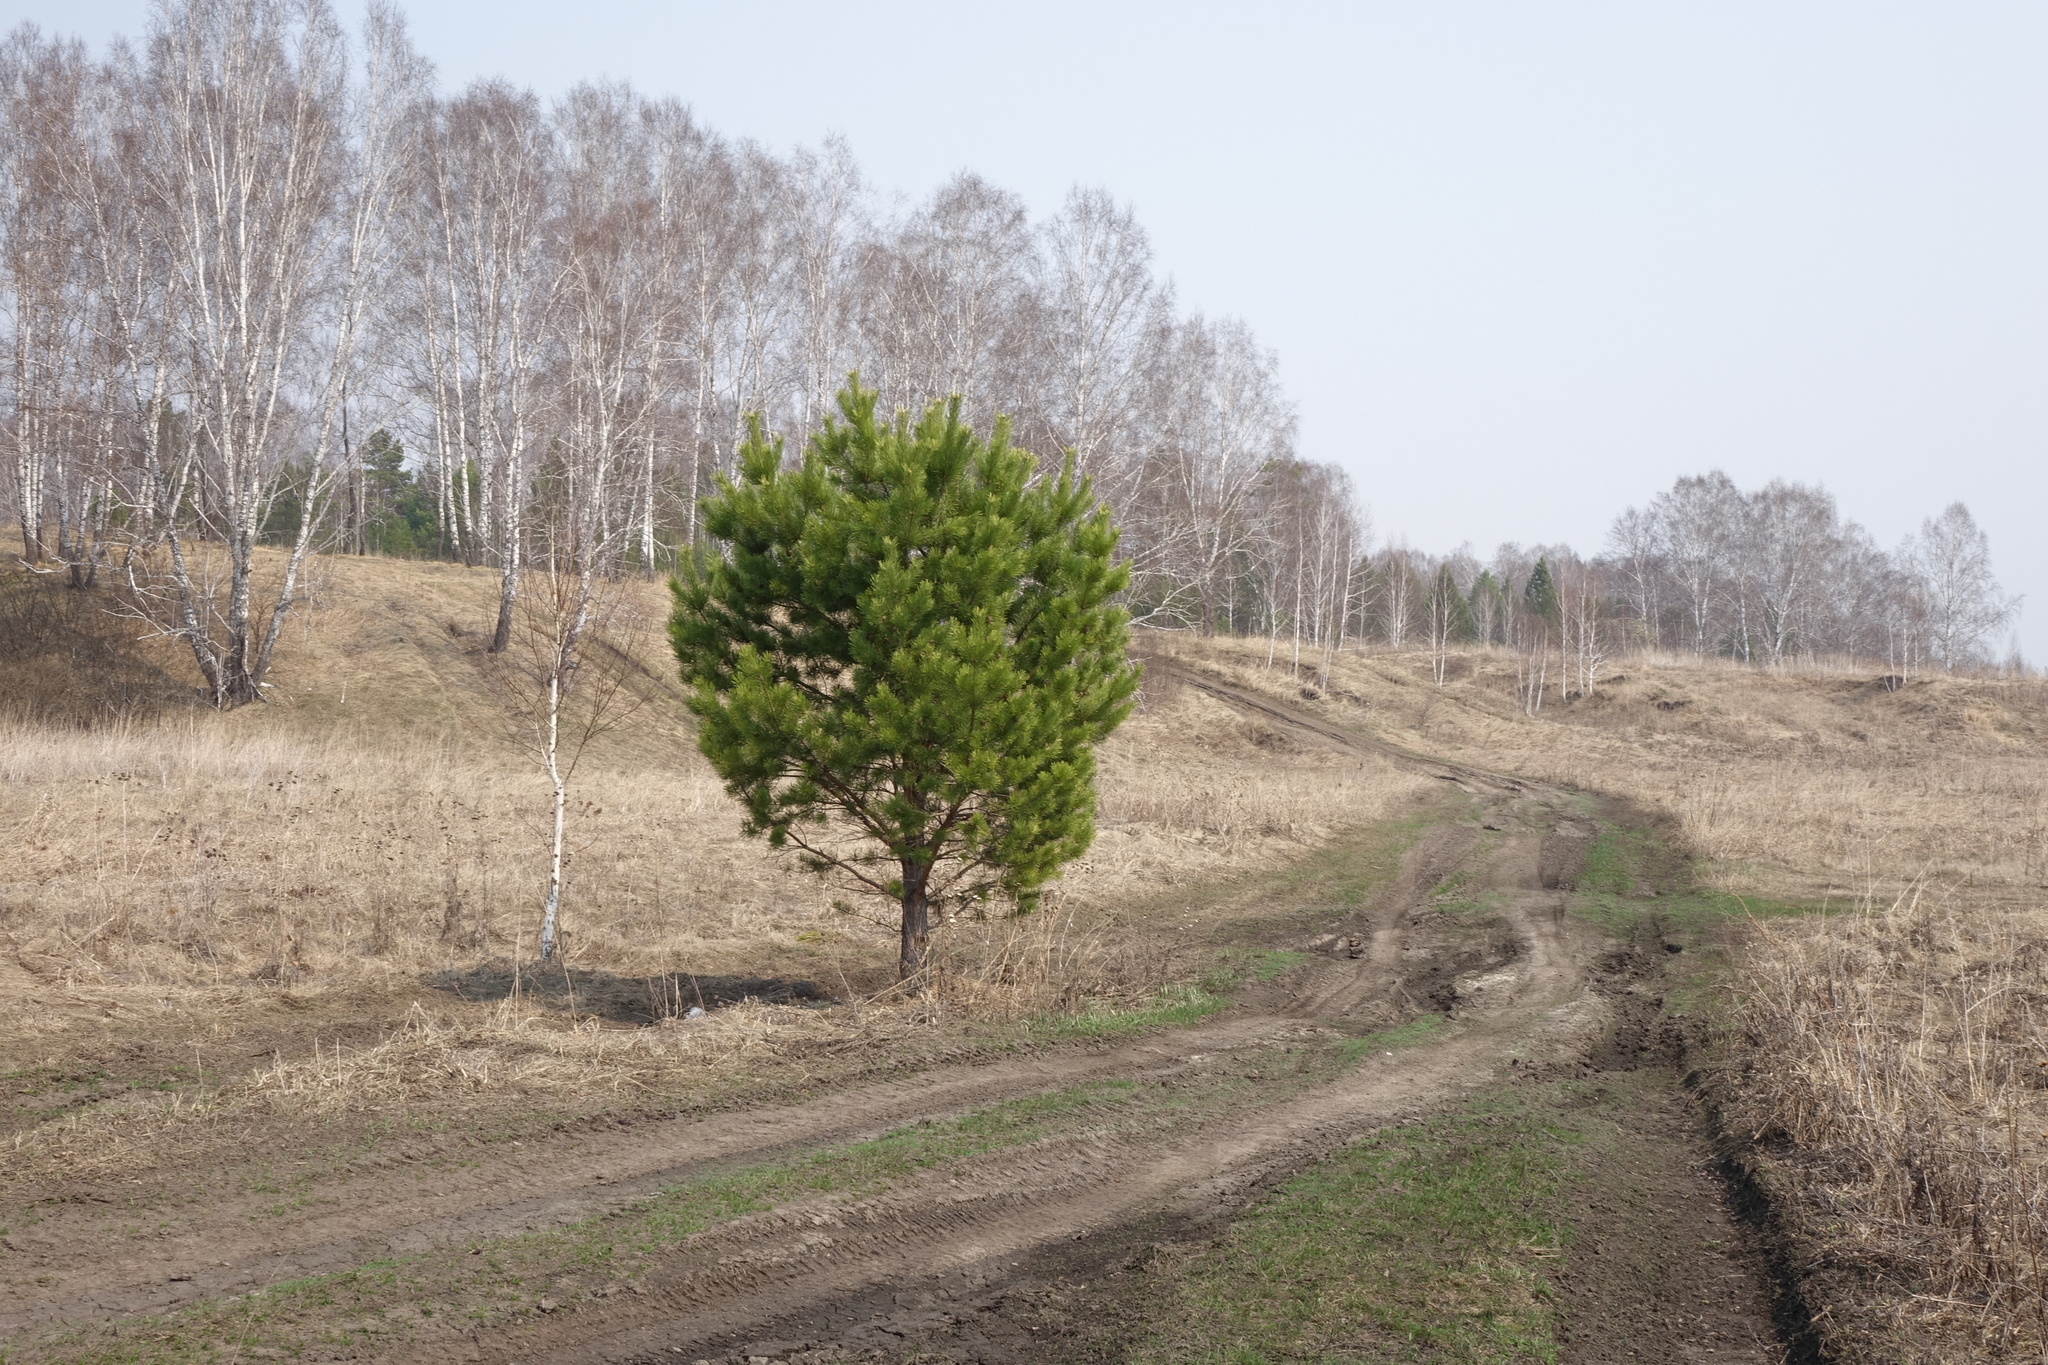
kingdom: Plantae
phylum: Tracheophyta
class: Pinopsida
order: Pinales
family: Pinaceae
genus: Pinus
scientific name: Pinus sylvestris
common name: Scots pine
